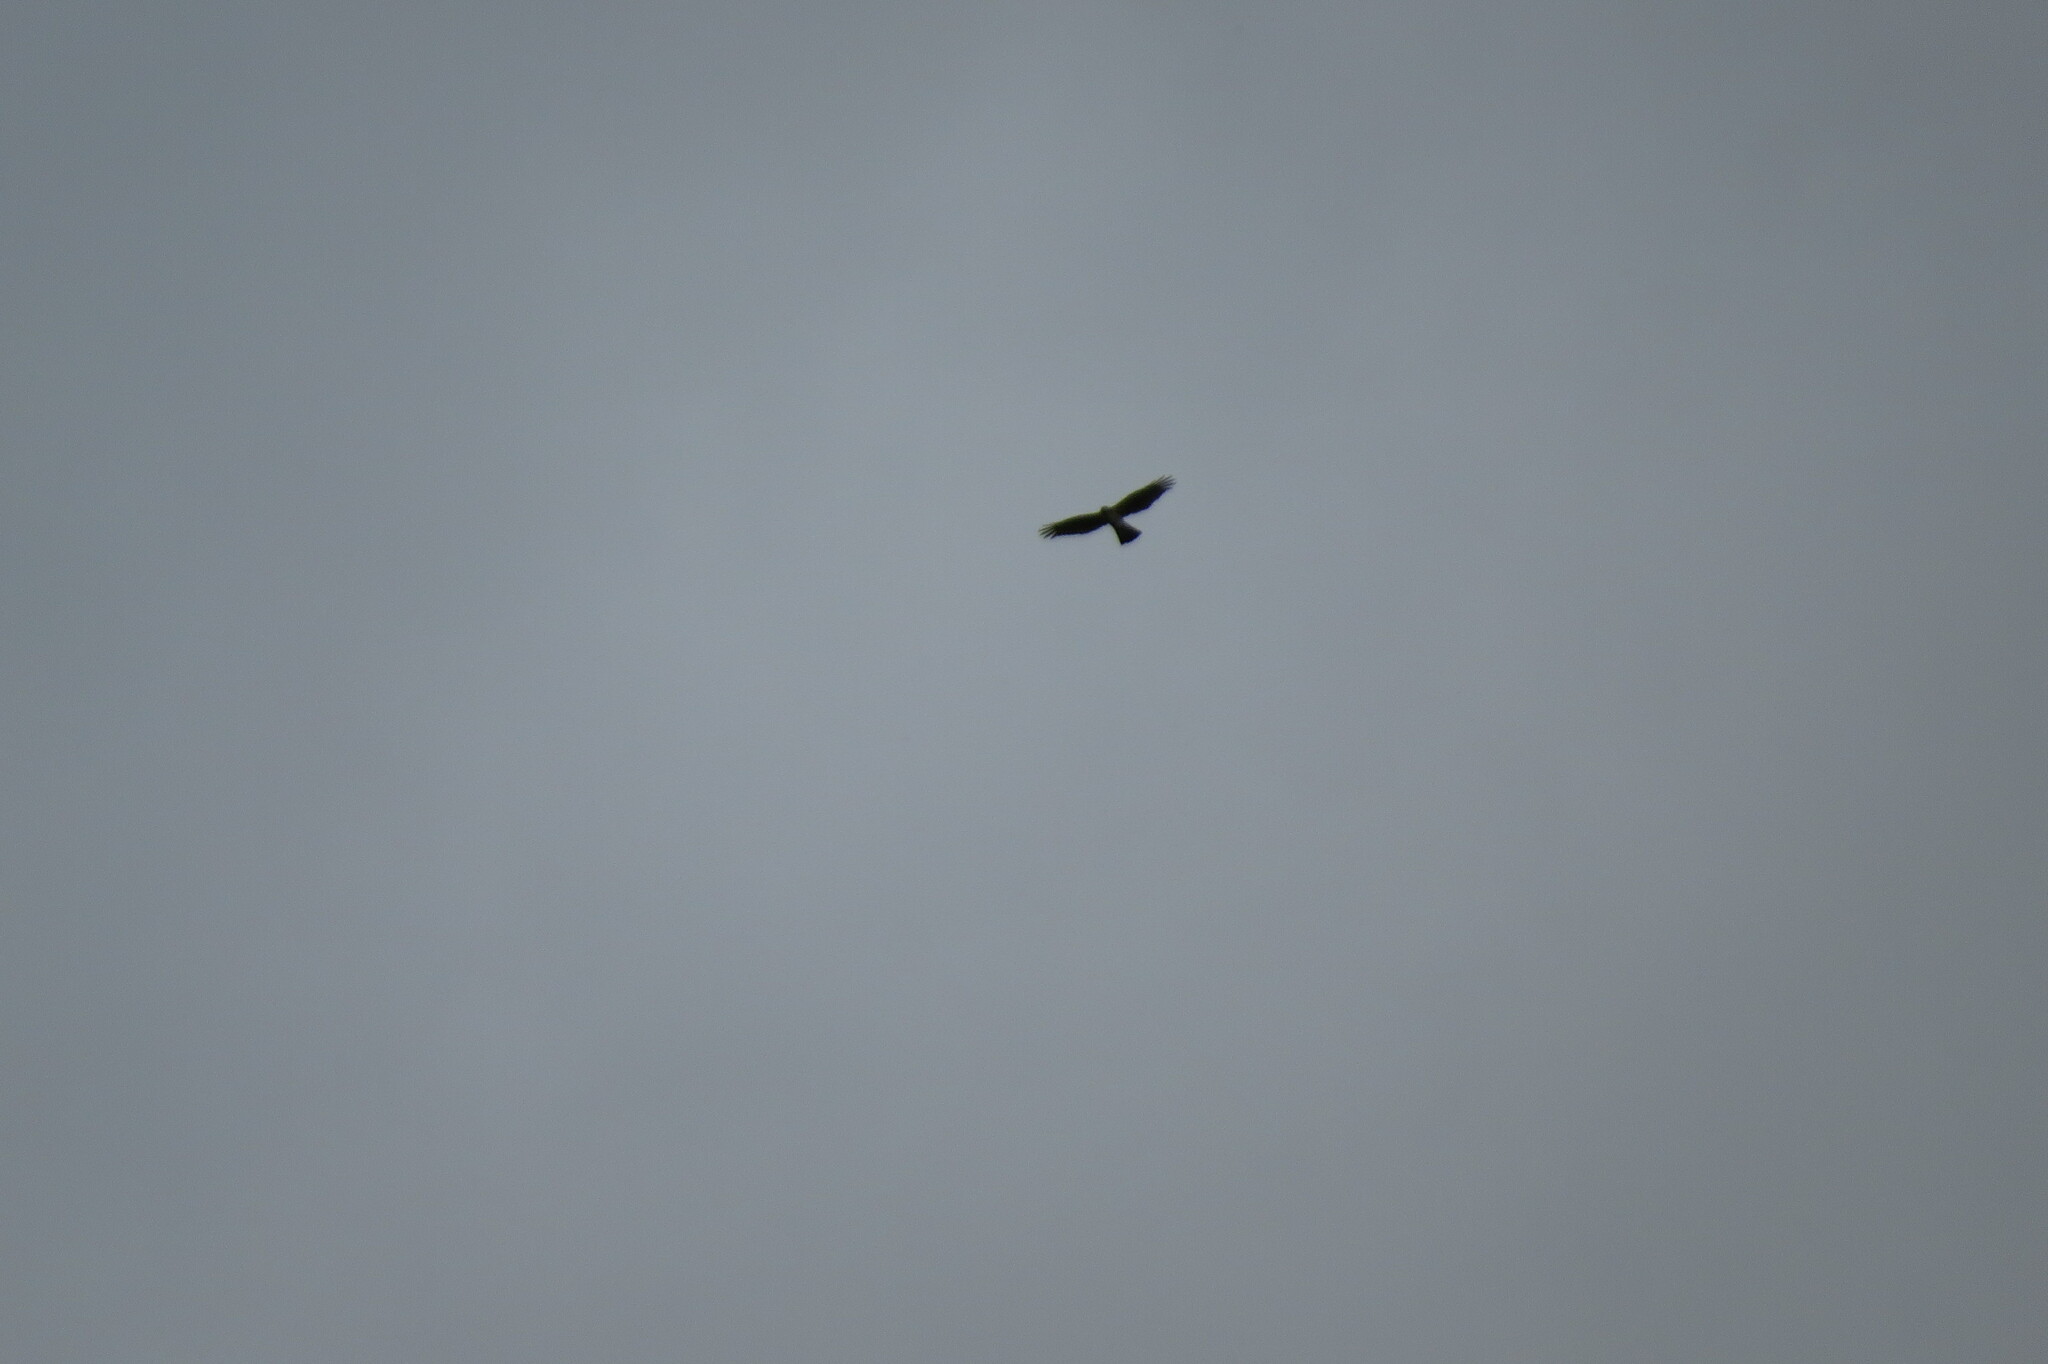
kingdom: Animalia
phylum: Chordata
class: Aves
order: Accipitriformes
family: Accipitridae
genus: Accipiter
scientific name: Accipiter nisus
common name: Eurasian sparrowhawk
